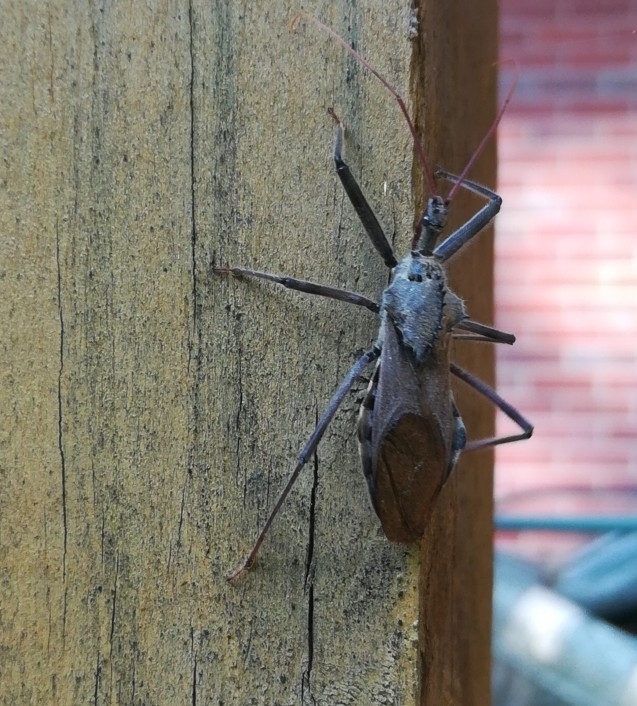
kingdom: Animalia
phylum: Arthropoda
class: Insecta
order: Hemiptera
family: Reduviidae
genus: Arilus
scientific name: Arilus cristatus
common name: North american wheel bug
